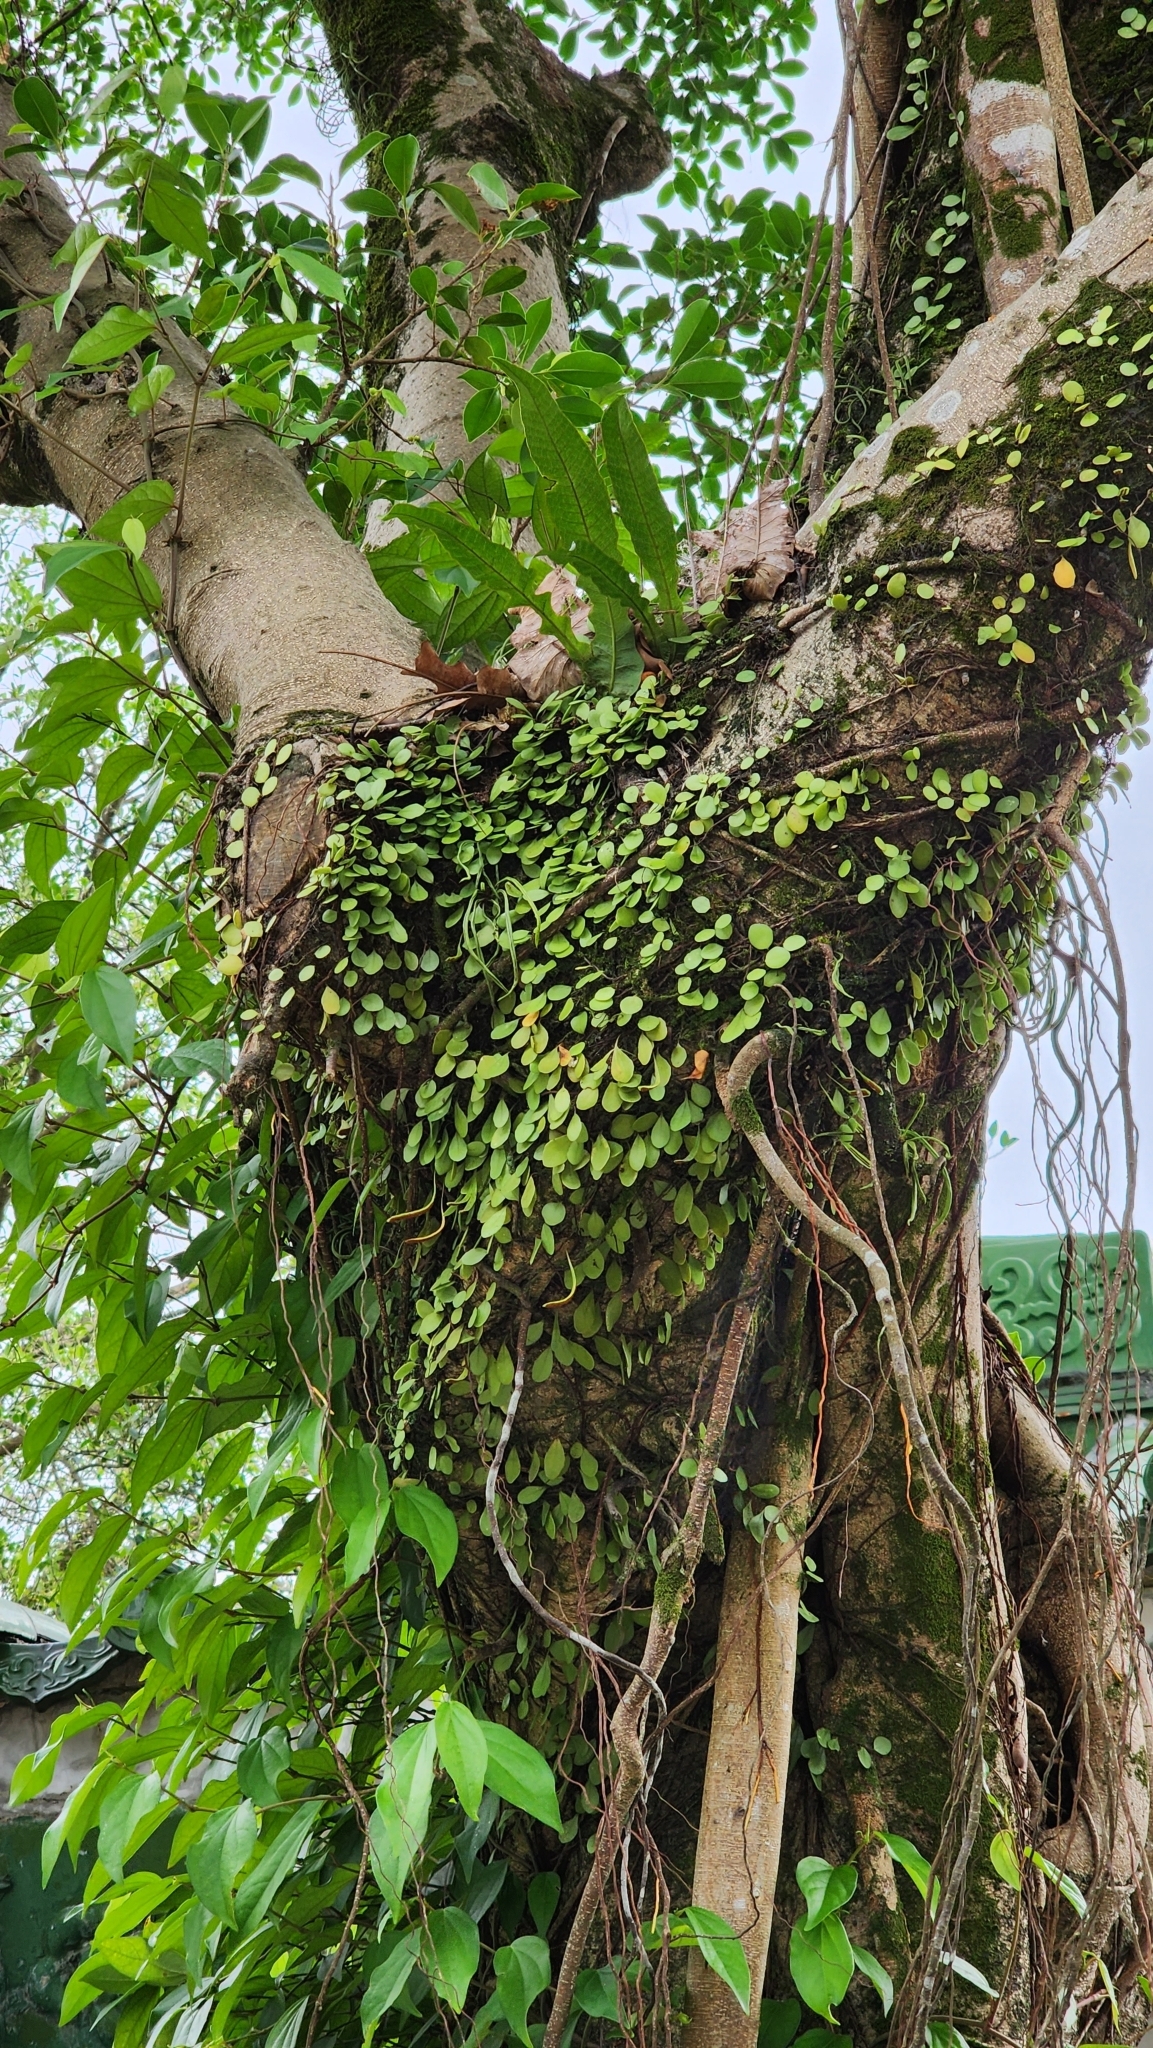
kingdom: Plantae
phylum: Tracheophyta
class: Polypodiopsida
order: Polypodiales
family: Polypodiaceae
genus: Lepisorus
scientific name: Lepisorus microphyllus
